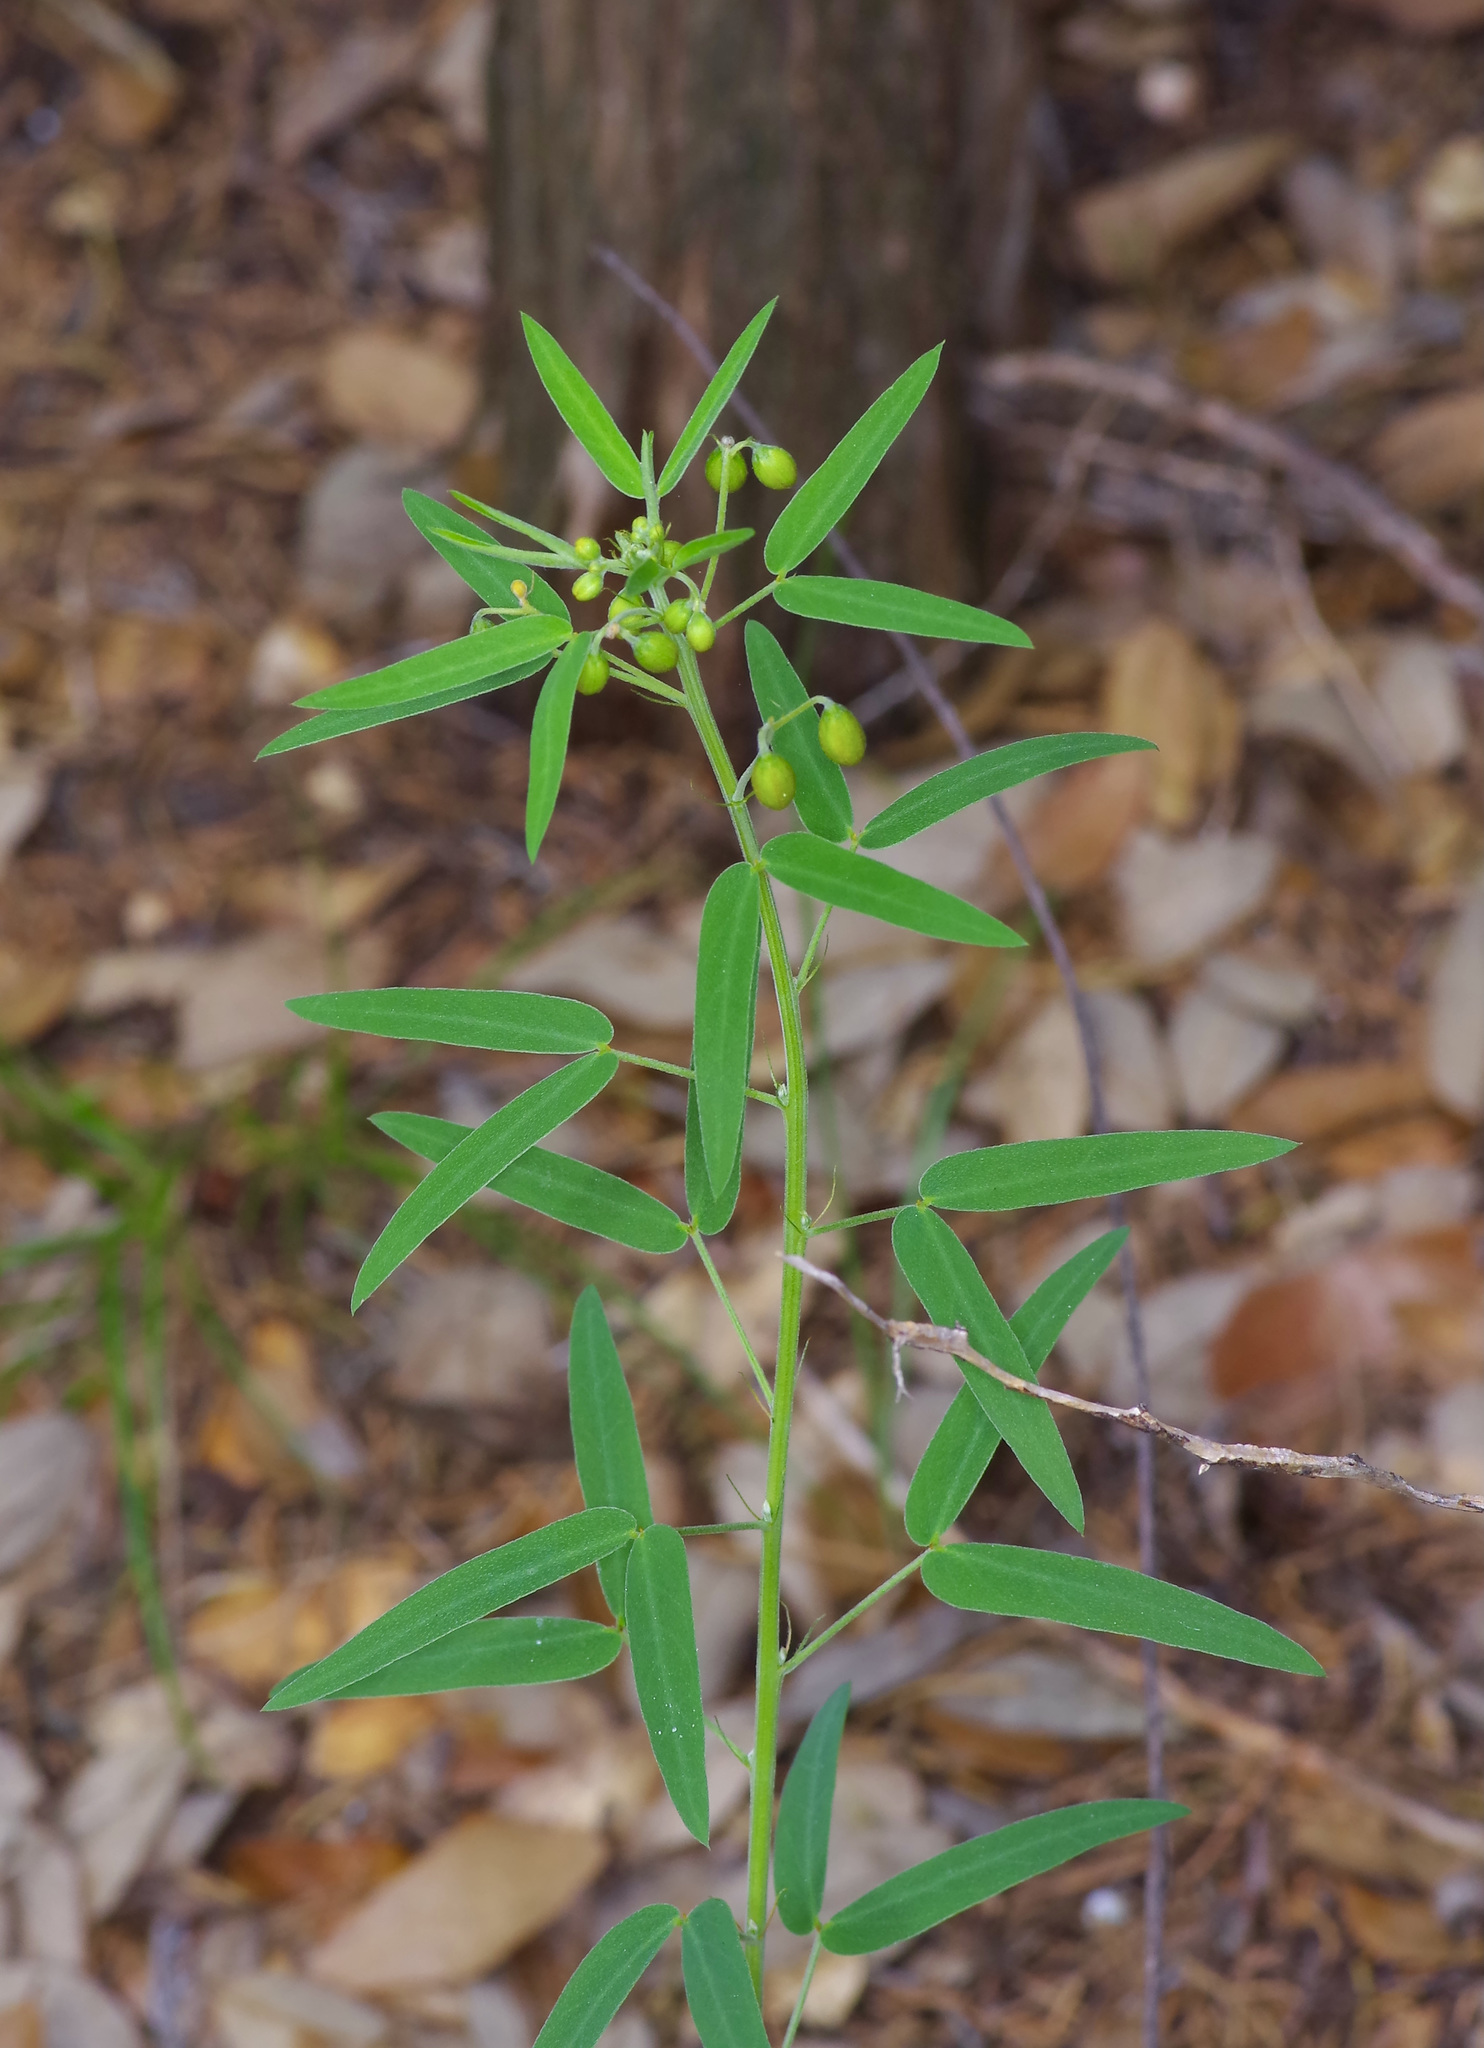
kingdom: Plantae
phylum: Tracheophyta
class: Magnoliopsida
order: Fabales
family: Fabaceae
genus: Senna
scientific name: Senna roemeriana
